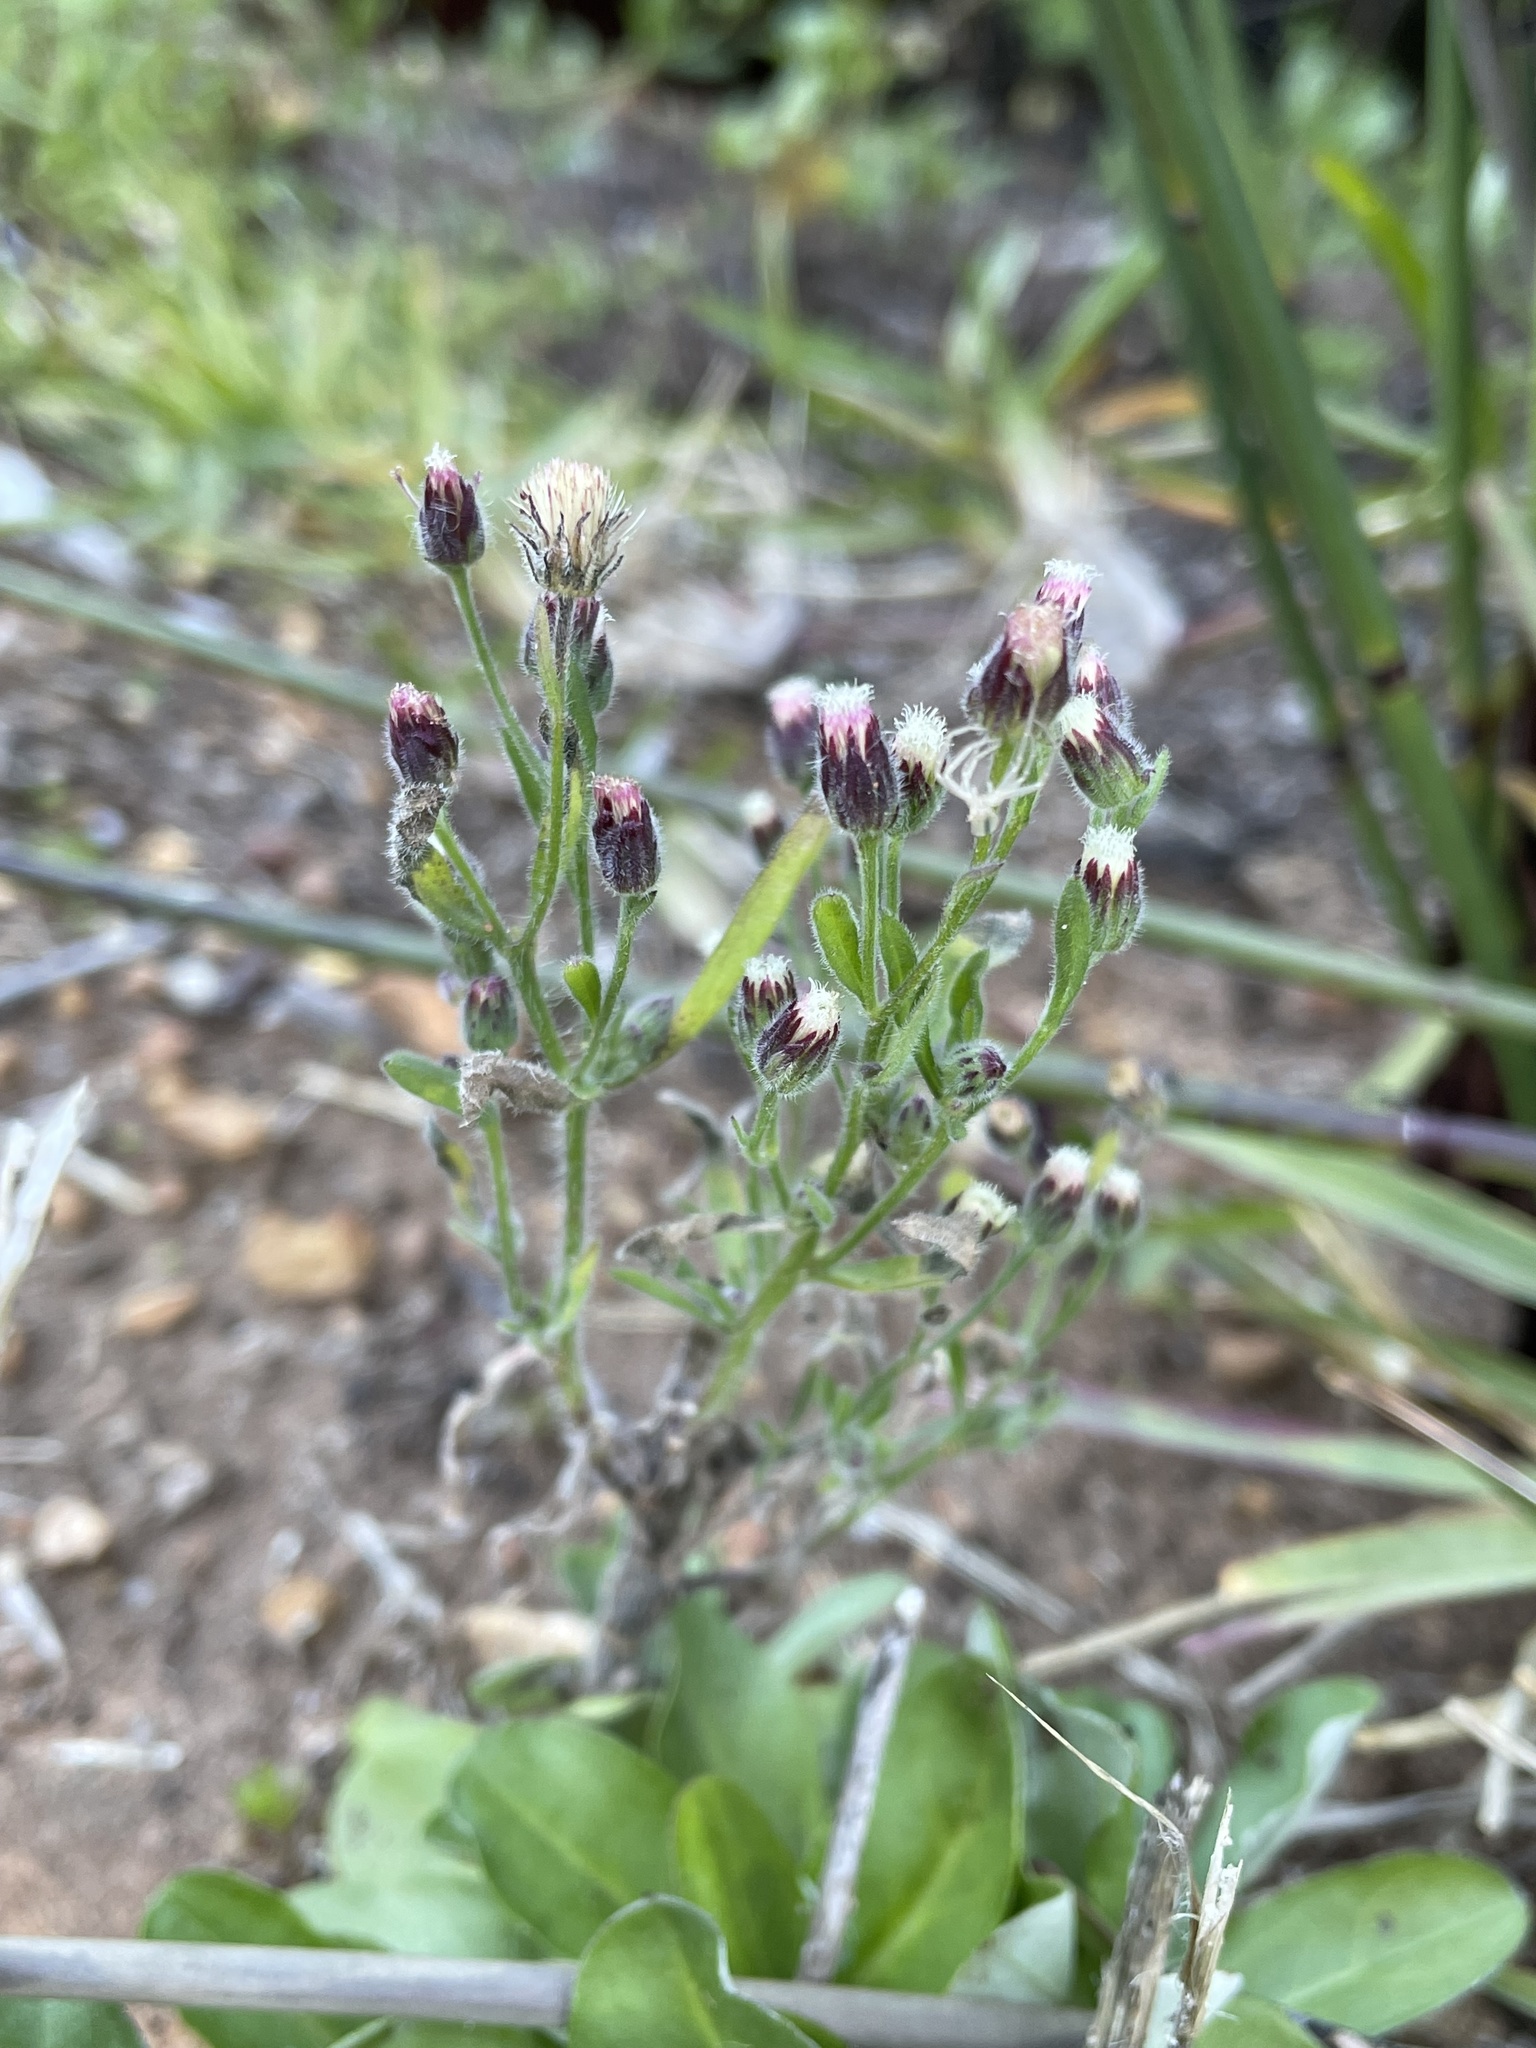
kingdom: Plantae
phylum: Tracheophyta
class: Magnoliopsida
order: Asterales
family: Asteraceae
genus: Erigeron
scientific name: Erigeron bonariensis
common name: Argentine fleabane
